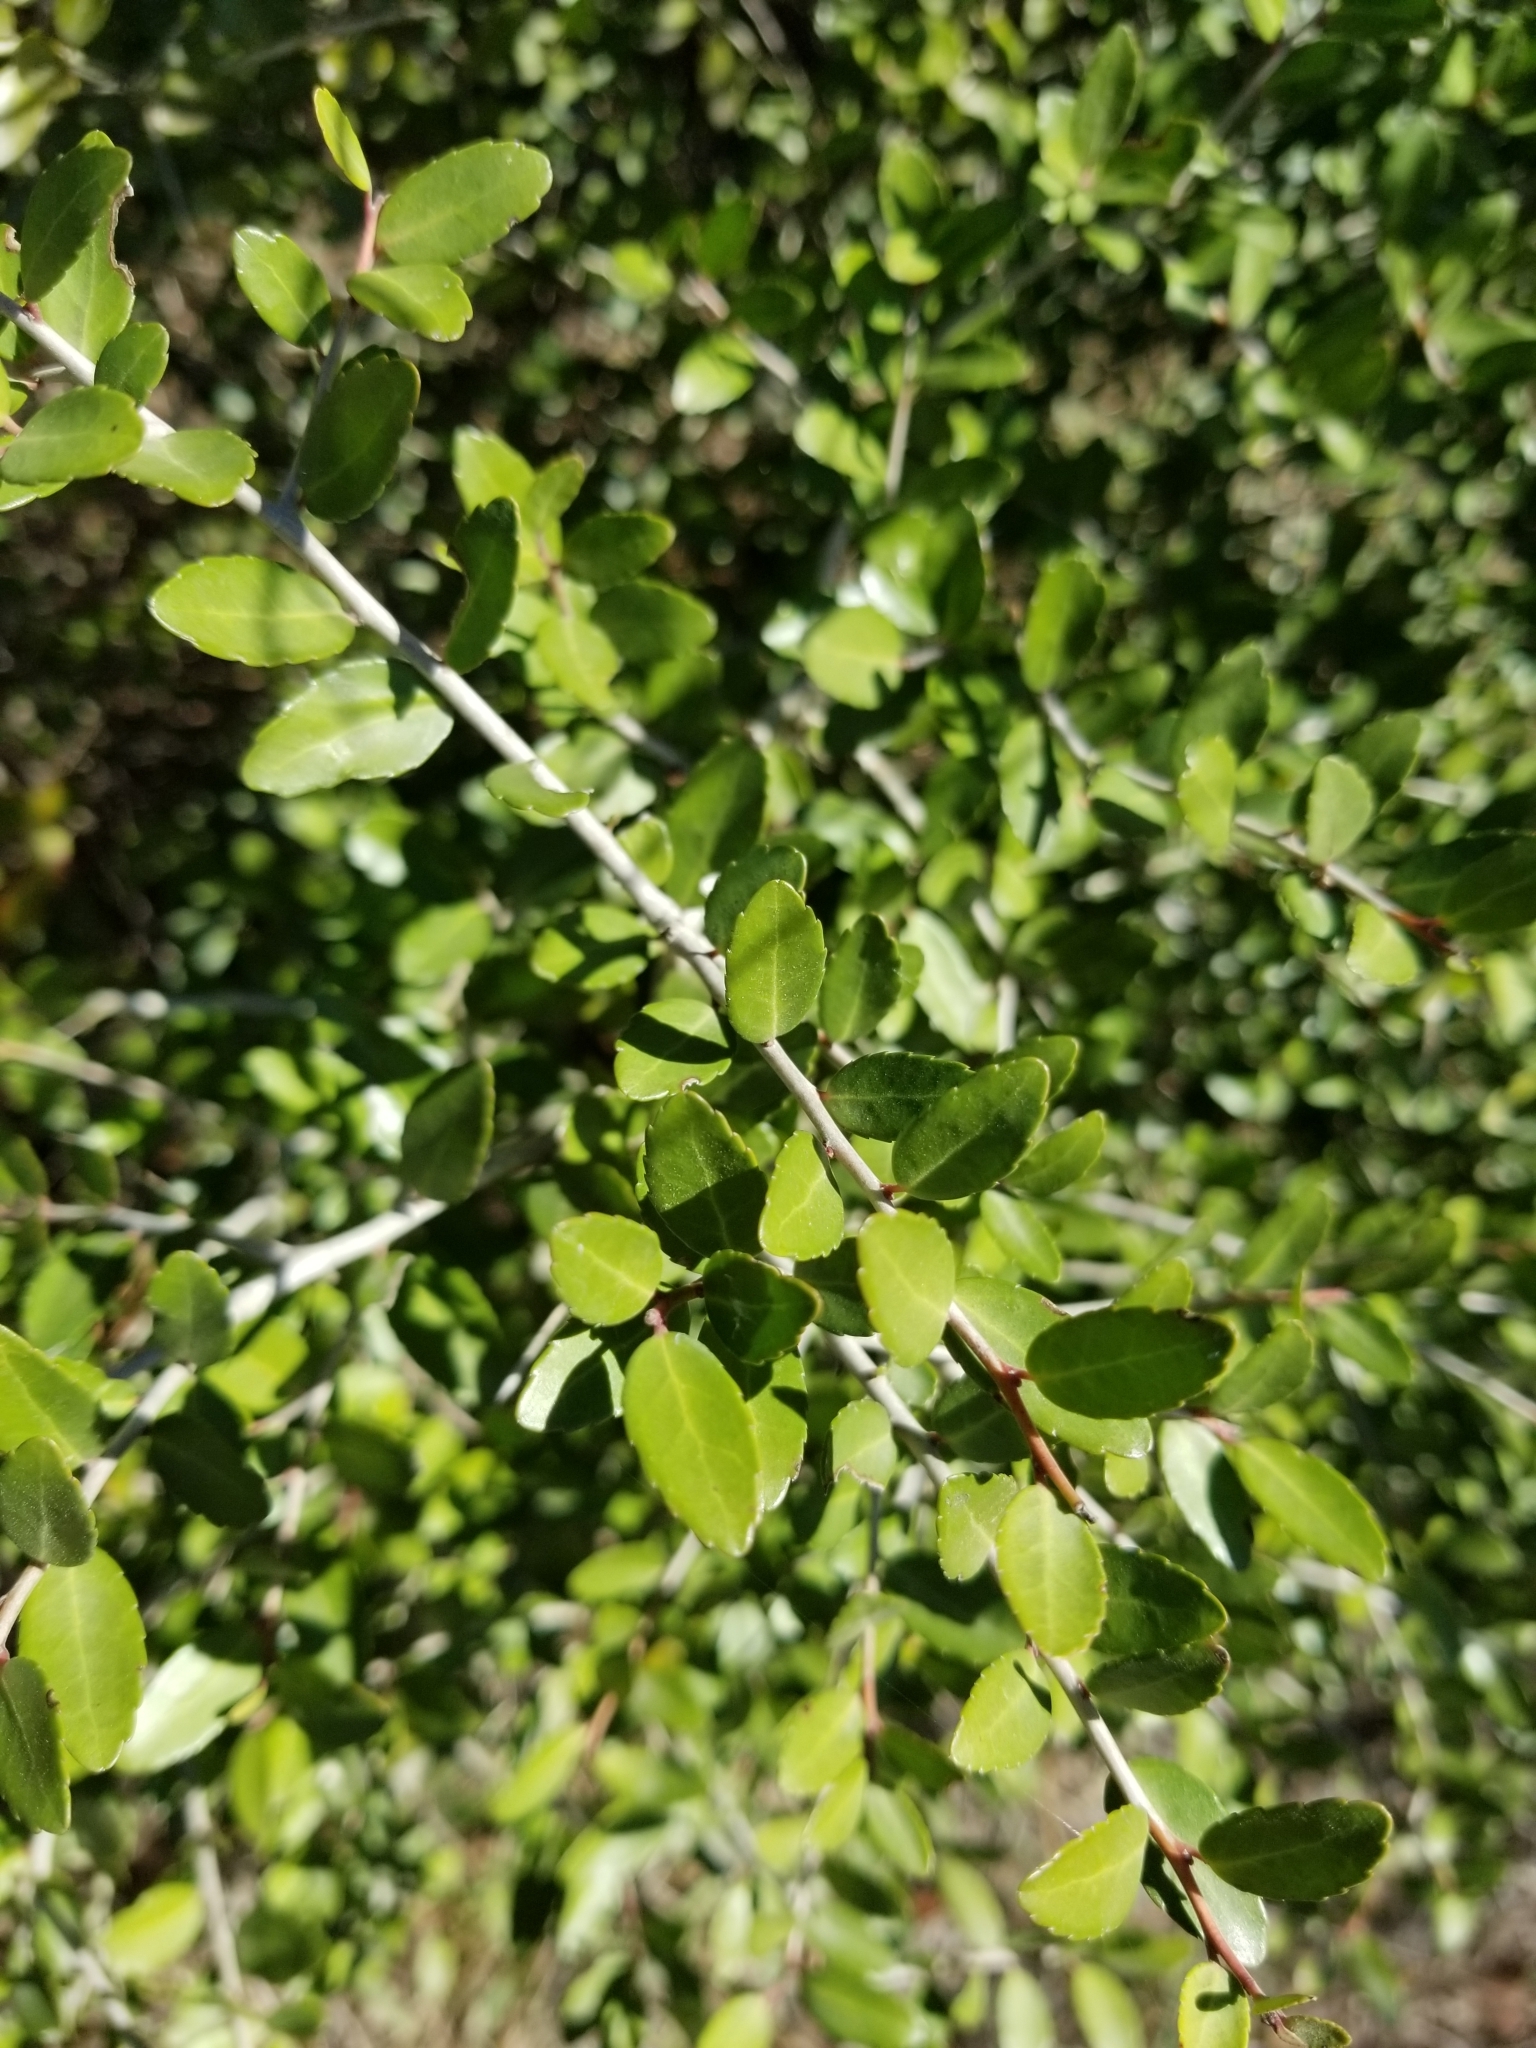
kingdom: Plantae
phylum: Tracheophyta
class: Magnoliopsida
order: Aquifoliales
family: Aquifoliaceae
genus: Ilex
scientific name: Ilex vomitoria
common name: Yaupon holly
